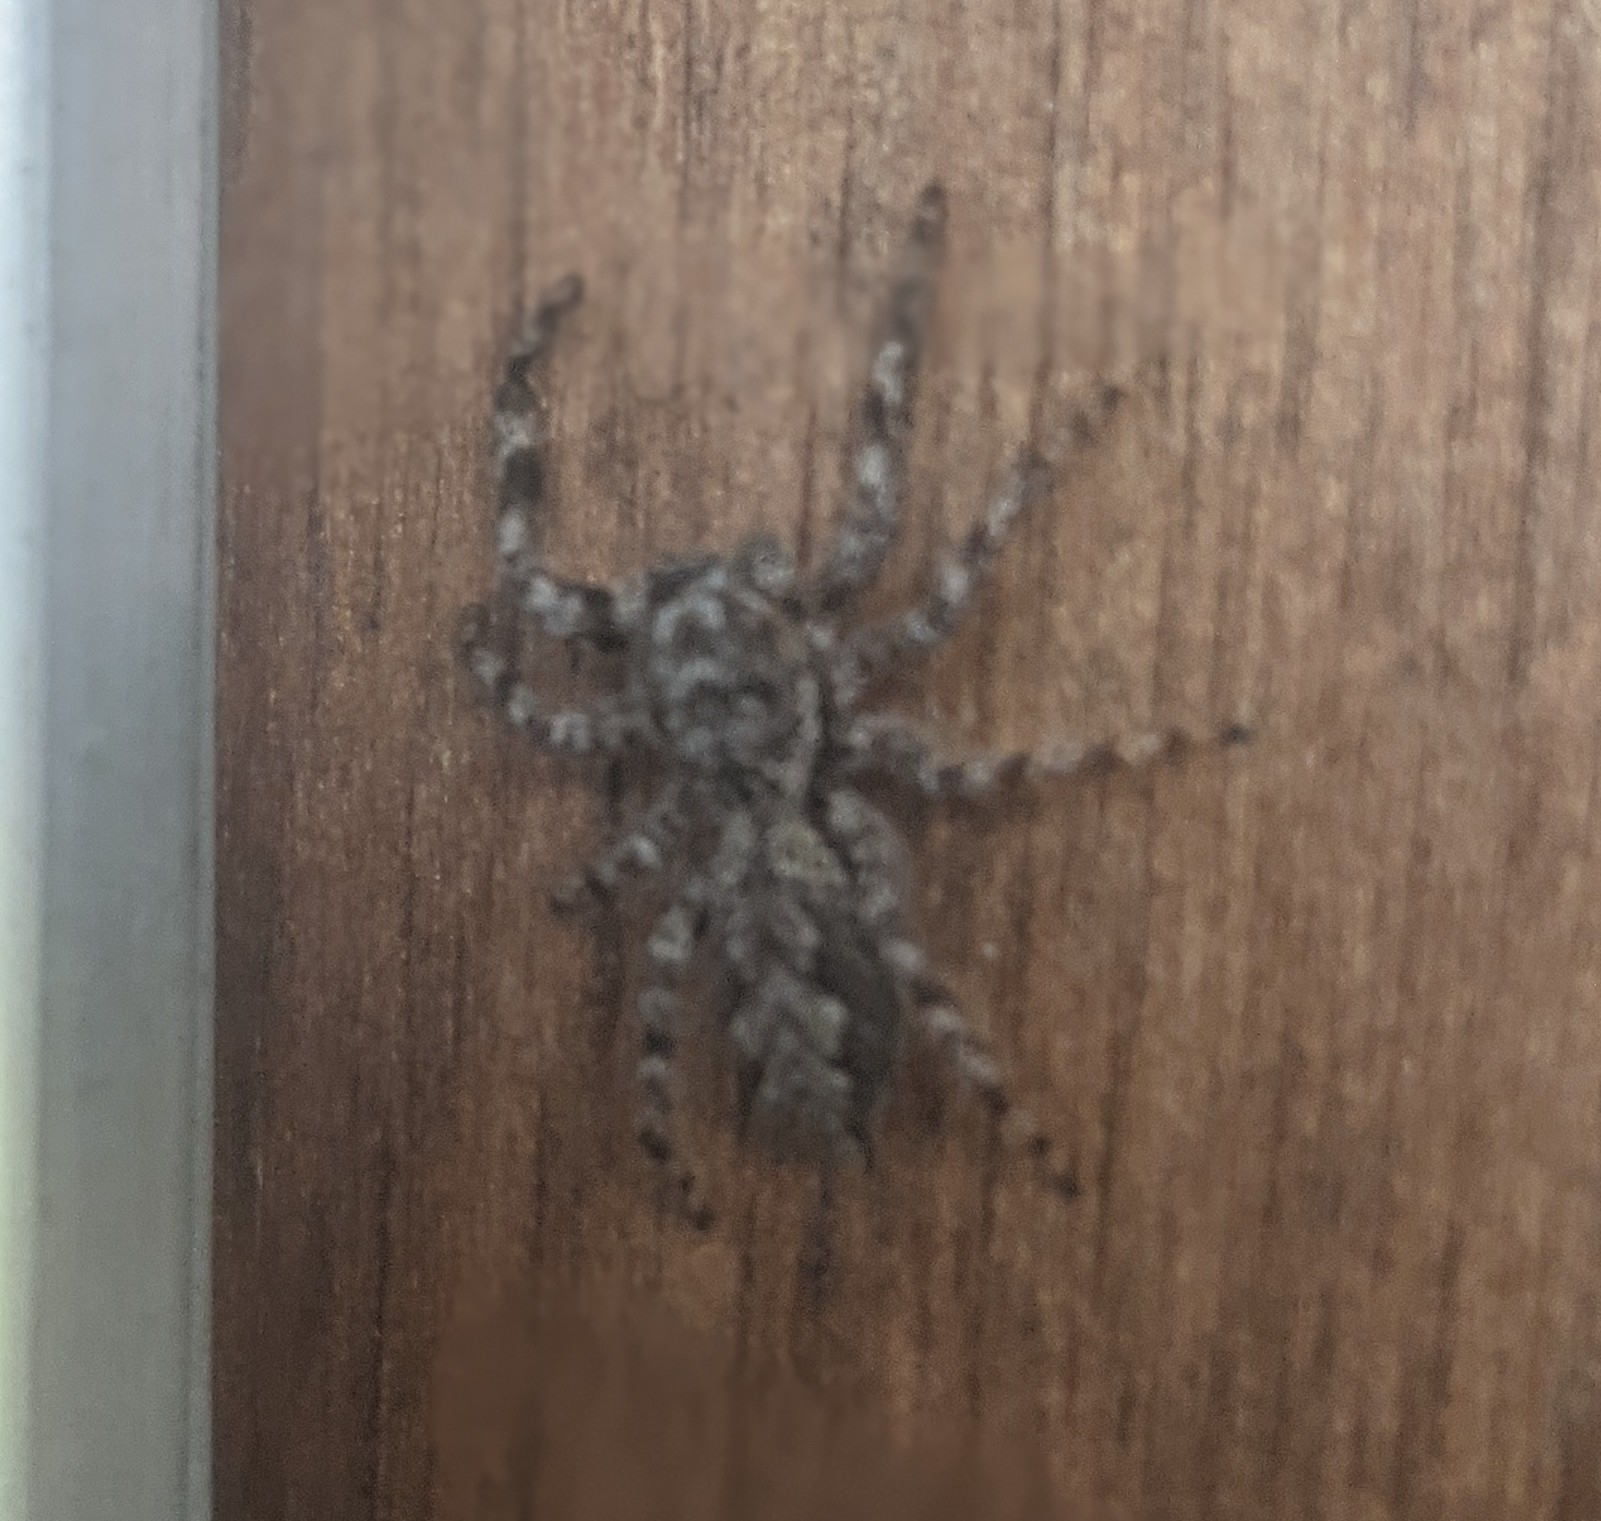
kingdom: Animalia
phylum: Arthropoda
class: Arachnida
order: Araneae
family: Salticidae
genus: Platycryptus
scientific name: Platycryptus undatus
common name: Tan jumping spider
